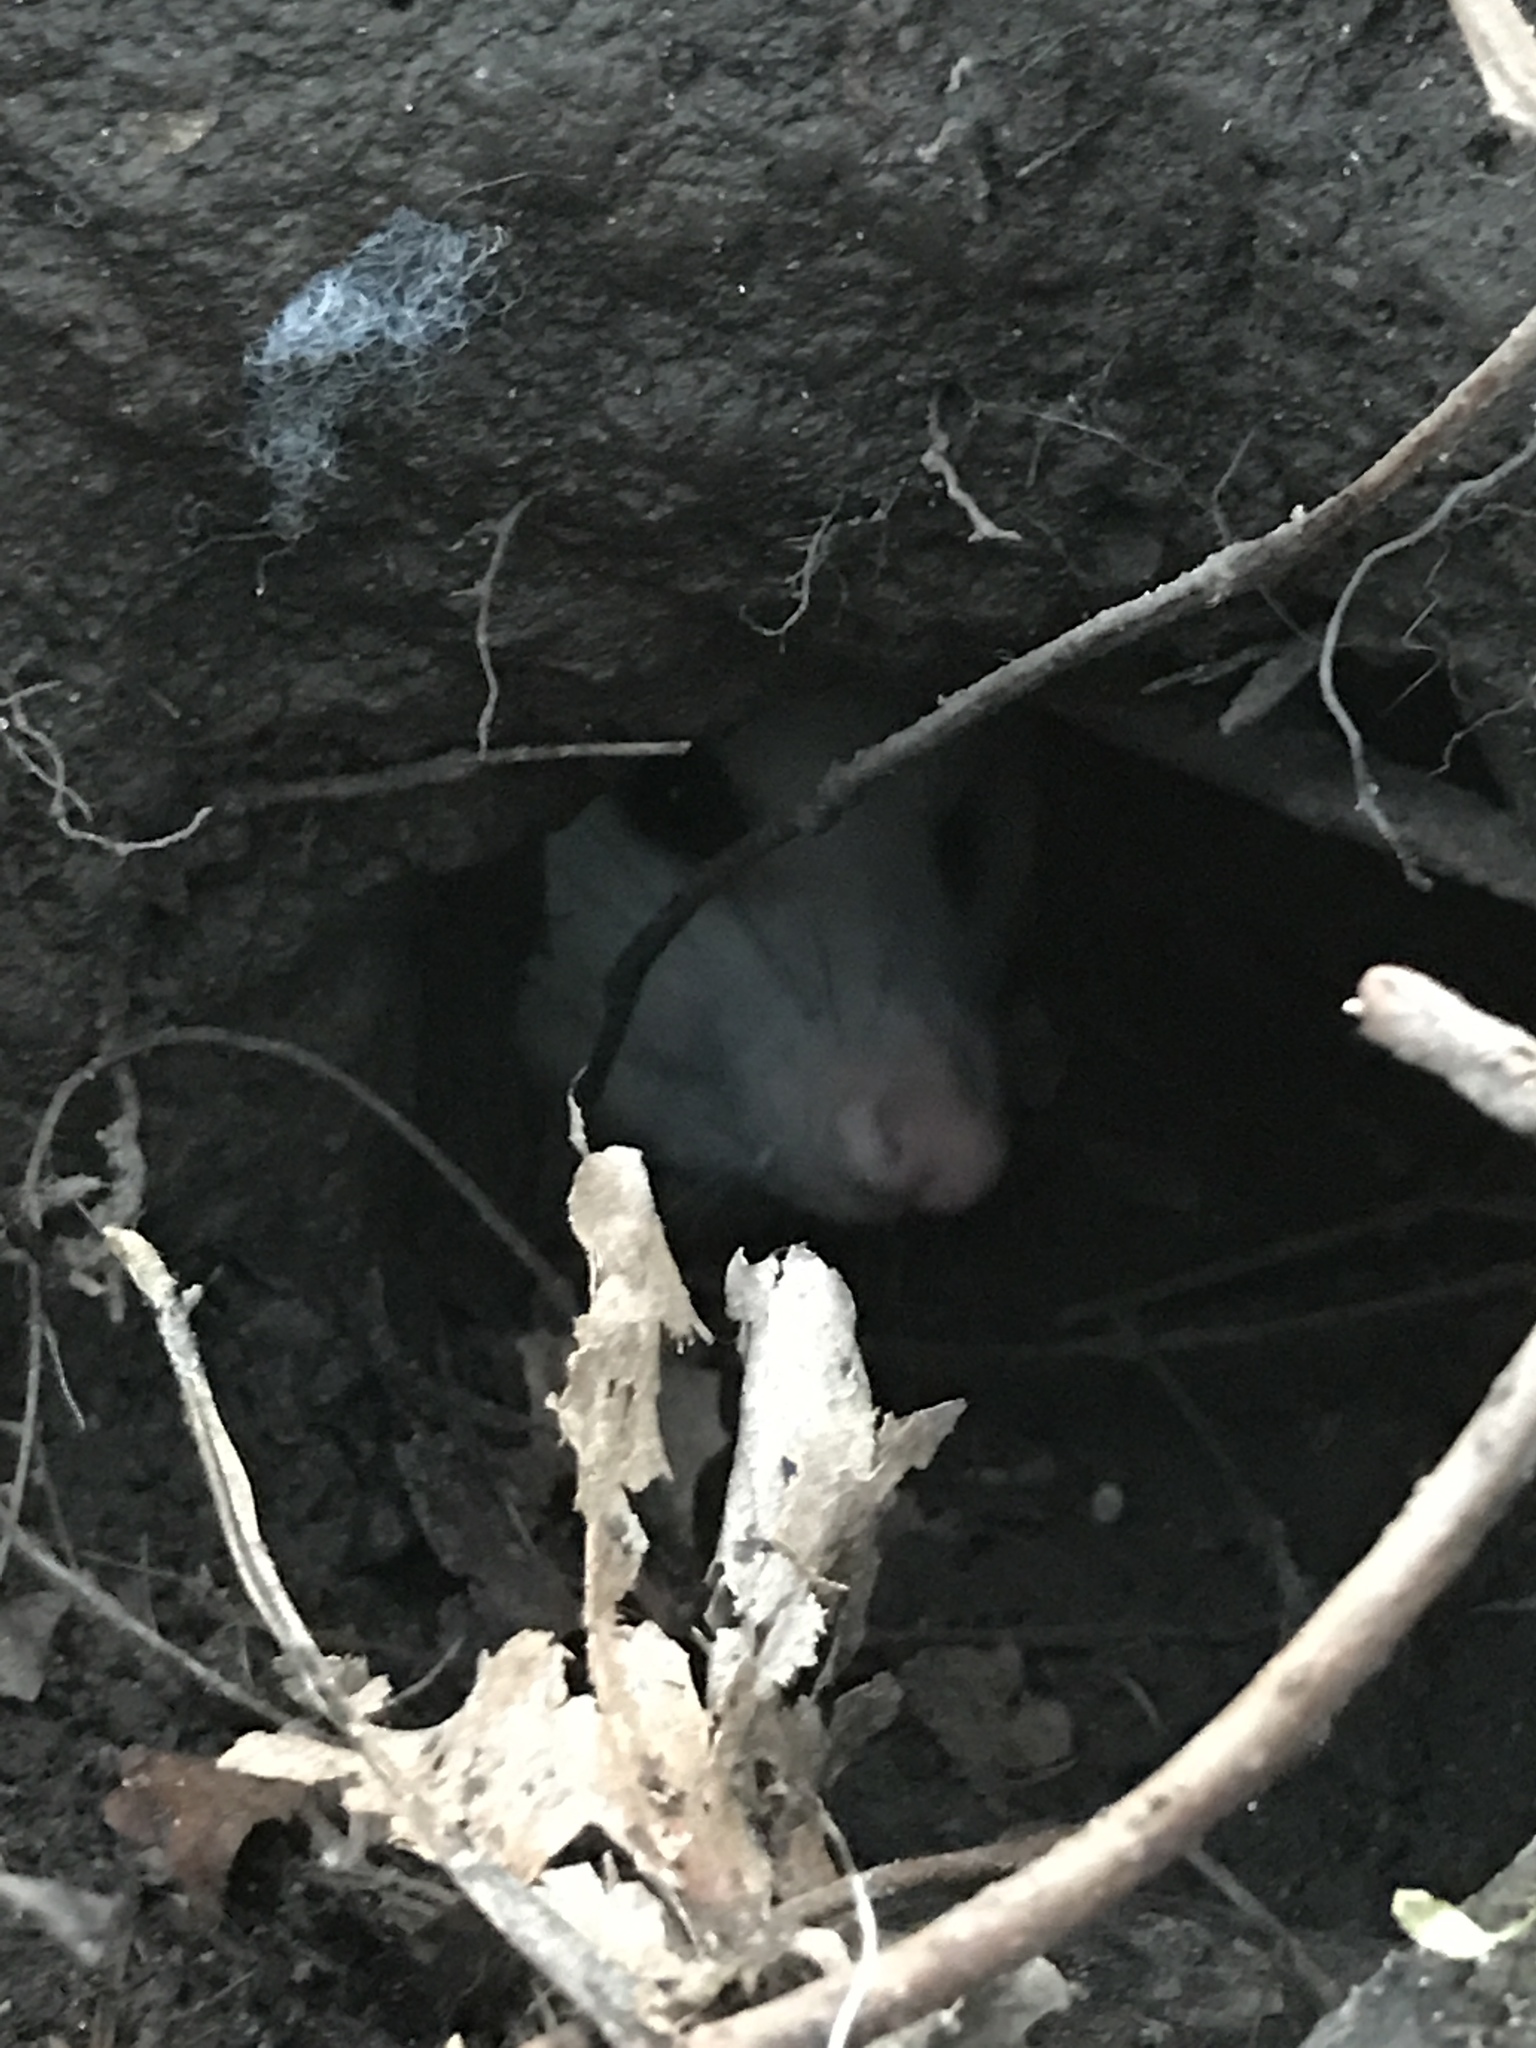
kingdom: Animalia
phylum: Chordata
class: Mammalia
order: Didelphimorphia
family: Didelphidae
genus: Didelphis
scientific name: Didelphis virginiana
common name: Virginia opossum
